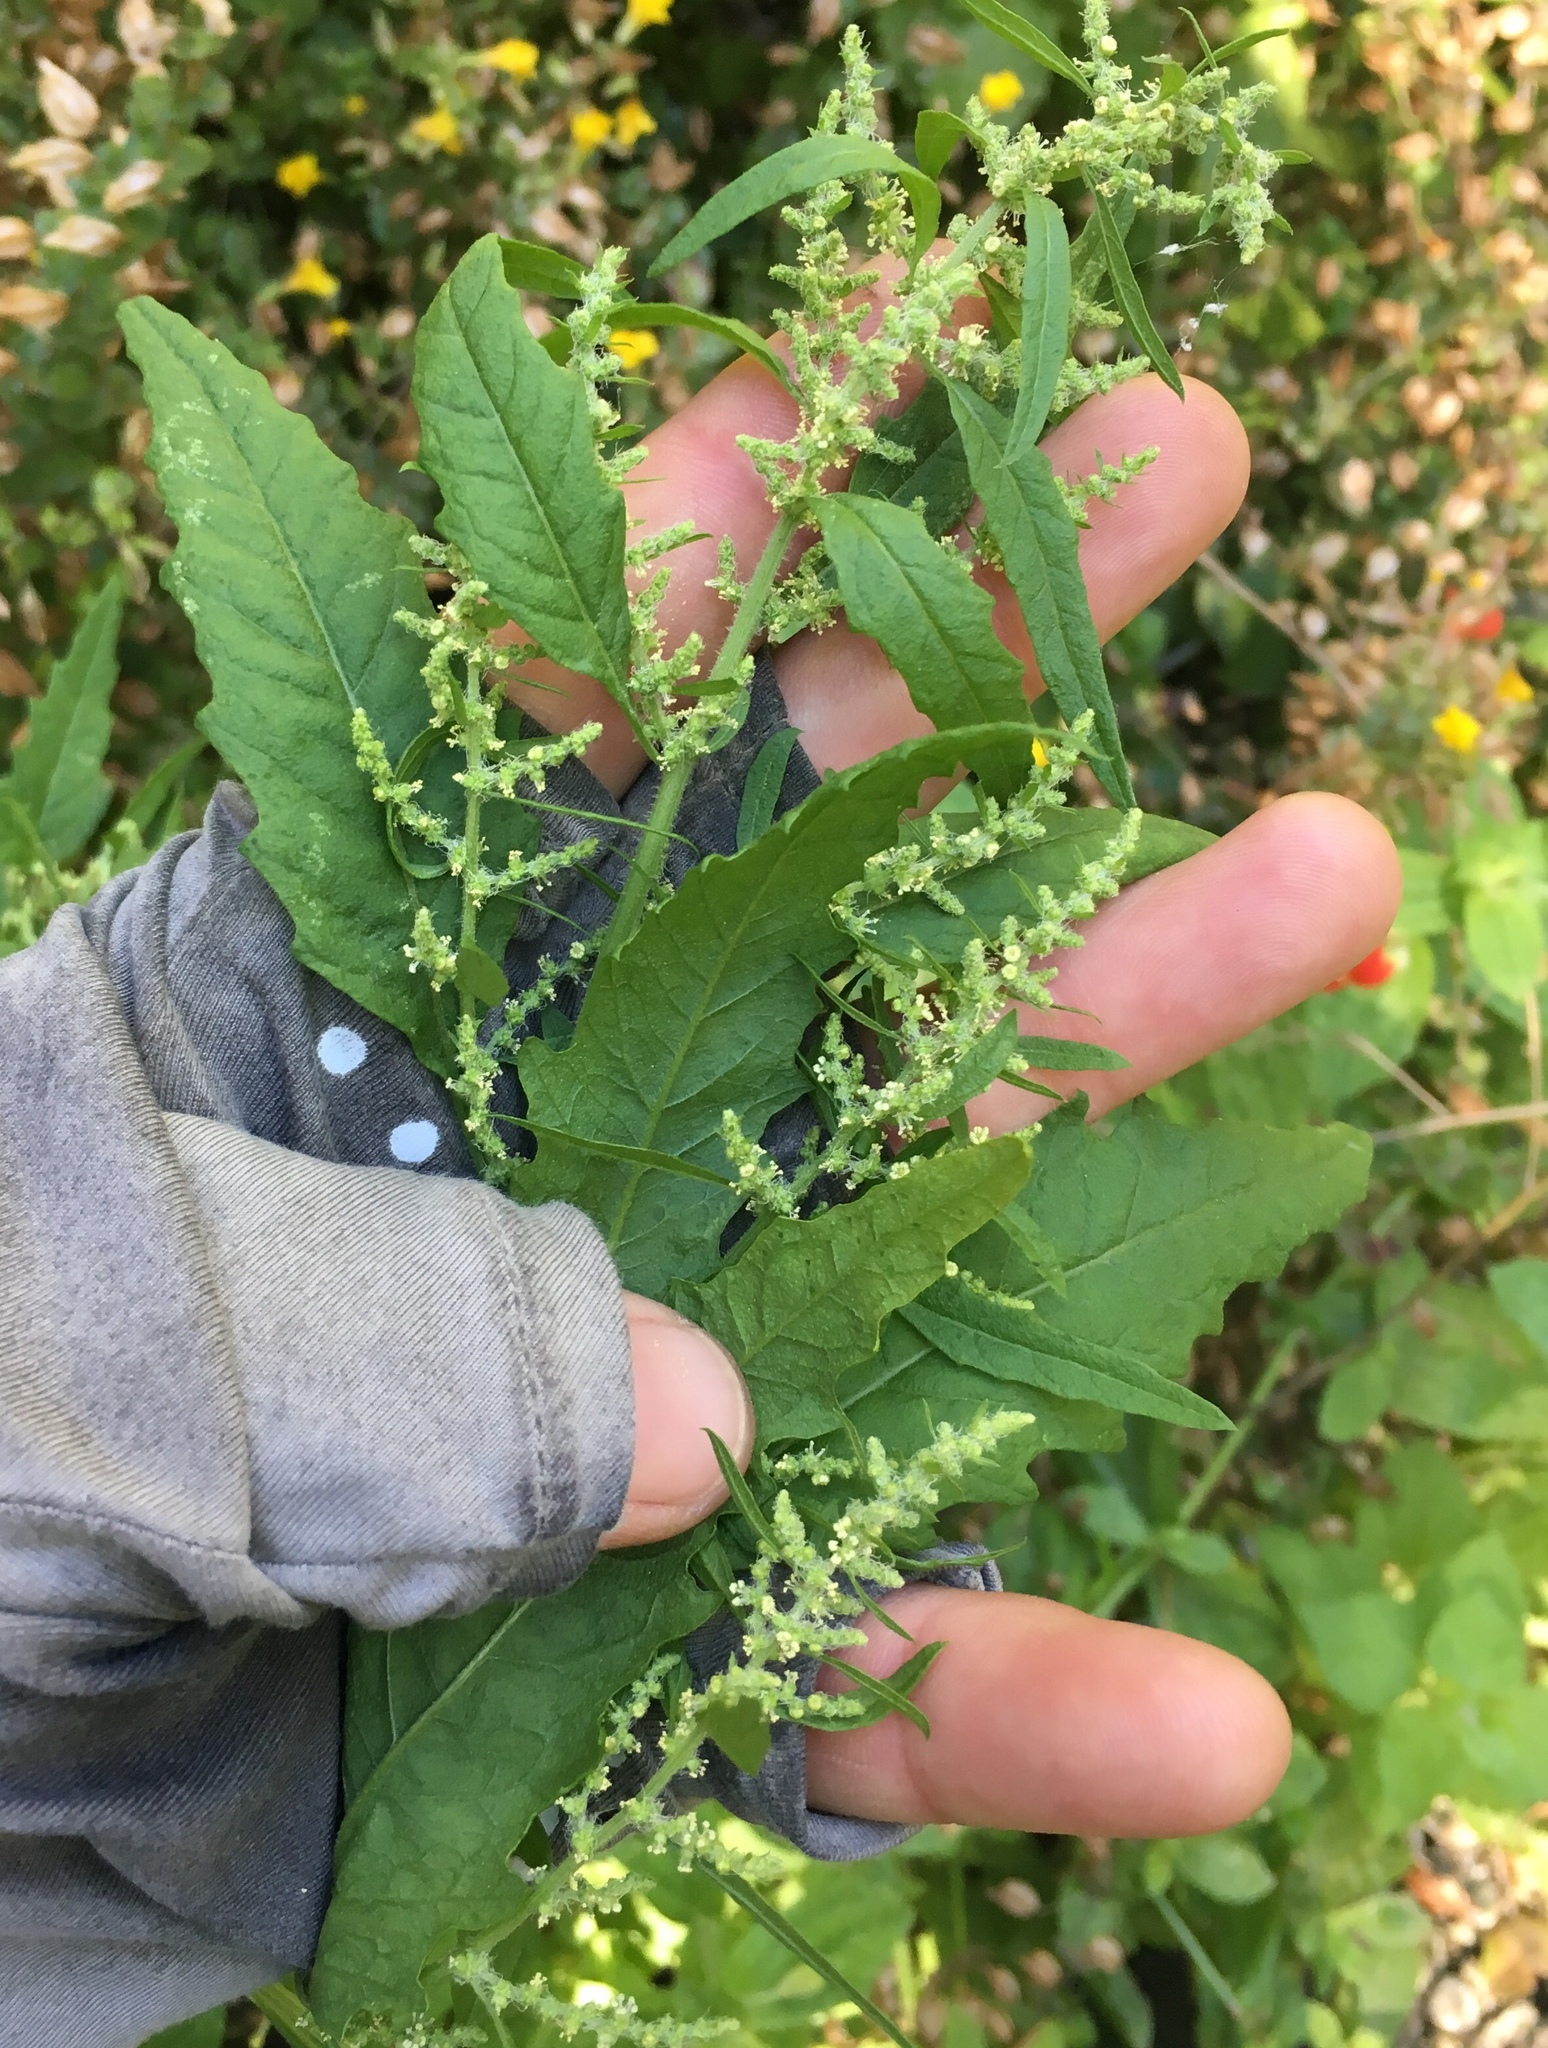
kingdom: Plantae
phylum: Tracheophyta
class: Magnoliopsida
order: Caryophyllales
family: Amaranthaceae
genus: Dysphania
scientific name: Dysphania ambrosioides
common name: Wormseed
